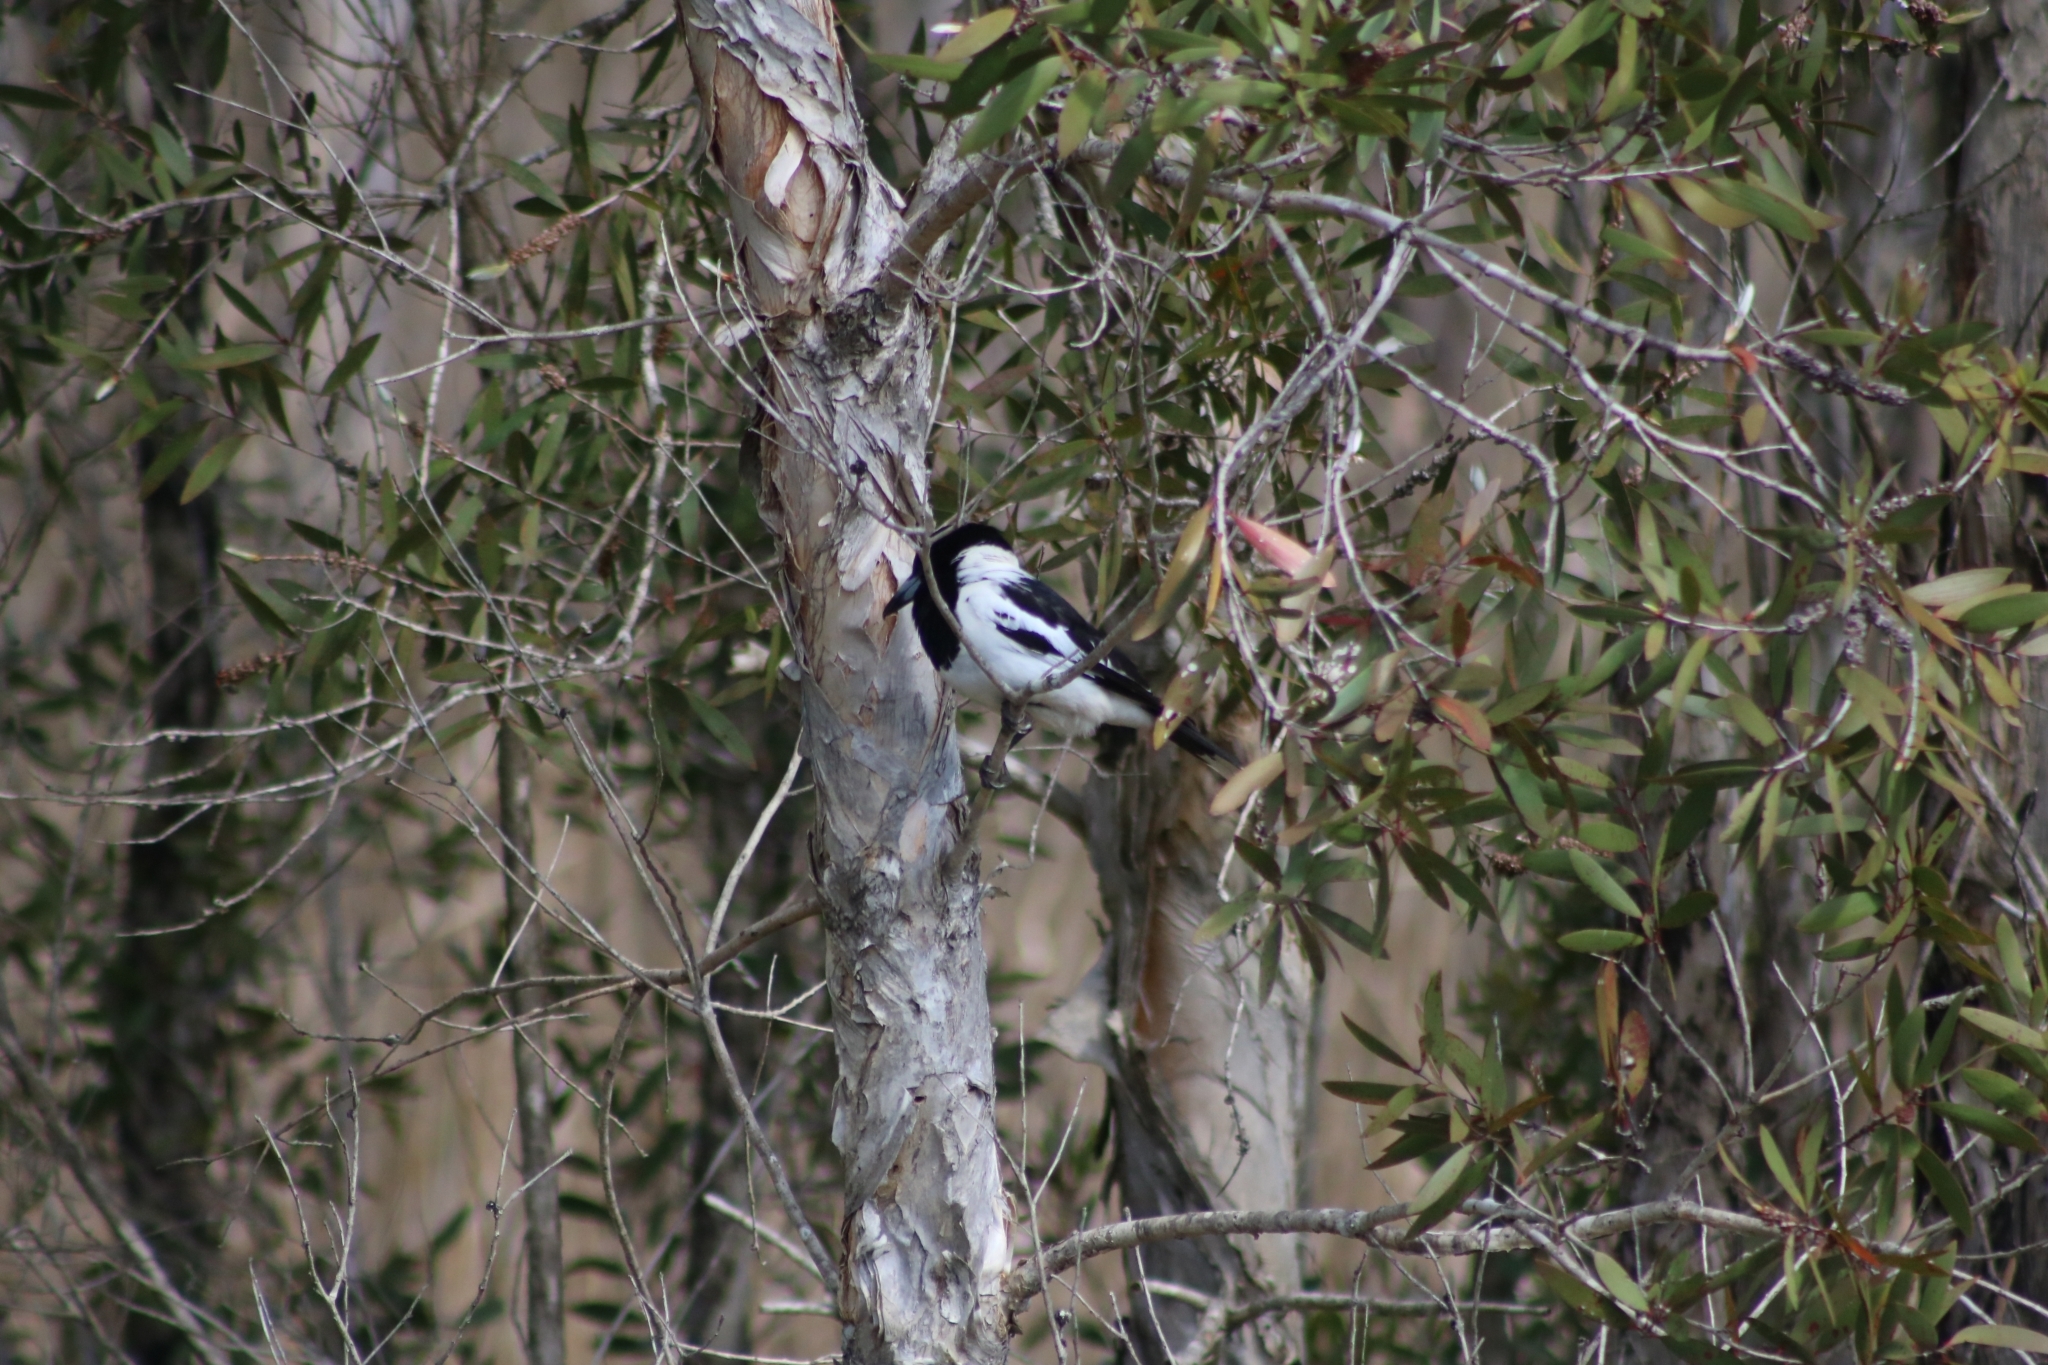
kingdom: Animalia
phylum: Chordata
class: Aves
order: Passeriformes
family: Cracticidae
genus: Cracticus
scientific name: Cracticus nigrogularis
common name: Pied butcherbird
